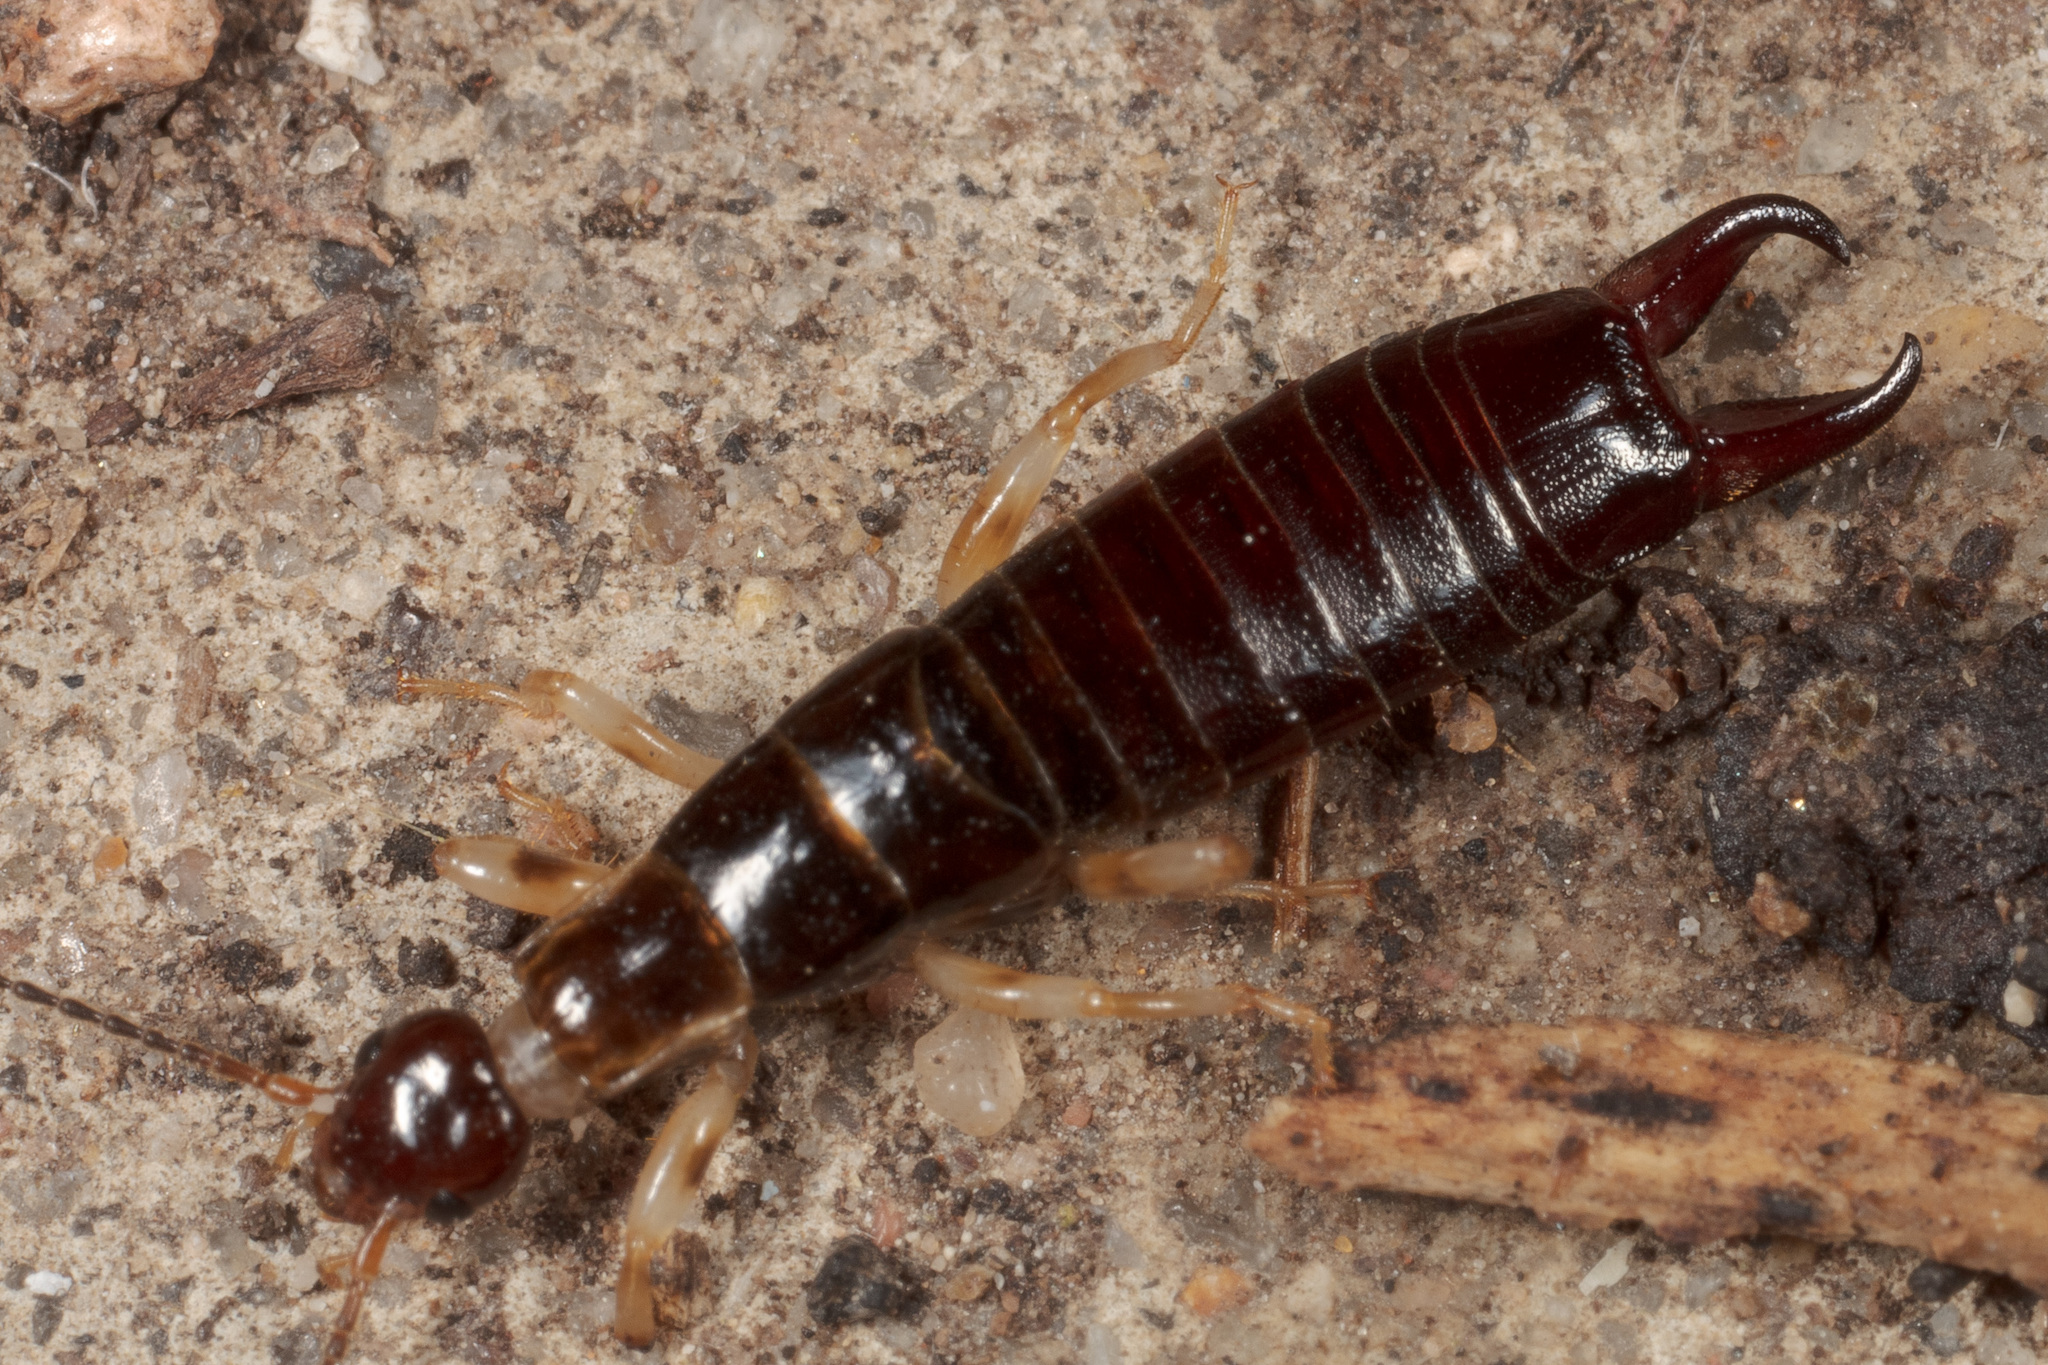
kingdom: Animalia
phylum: Arthropoda
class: Insecta
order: Dermaptera
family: Anisolabididae
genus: Euborellia
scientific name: Euborellia annulipes
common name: Ringlegged earwig
